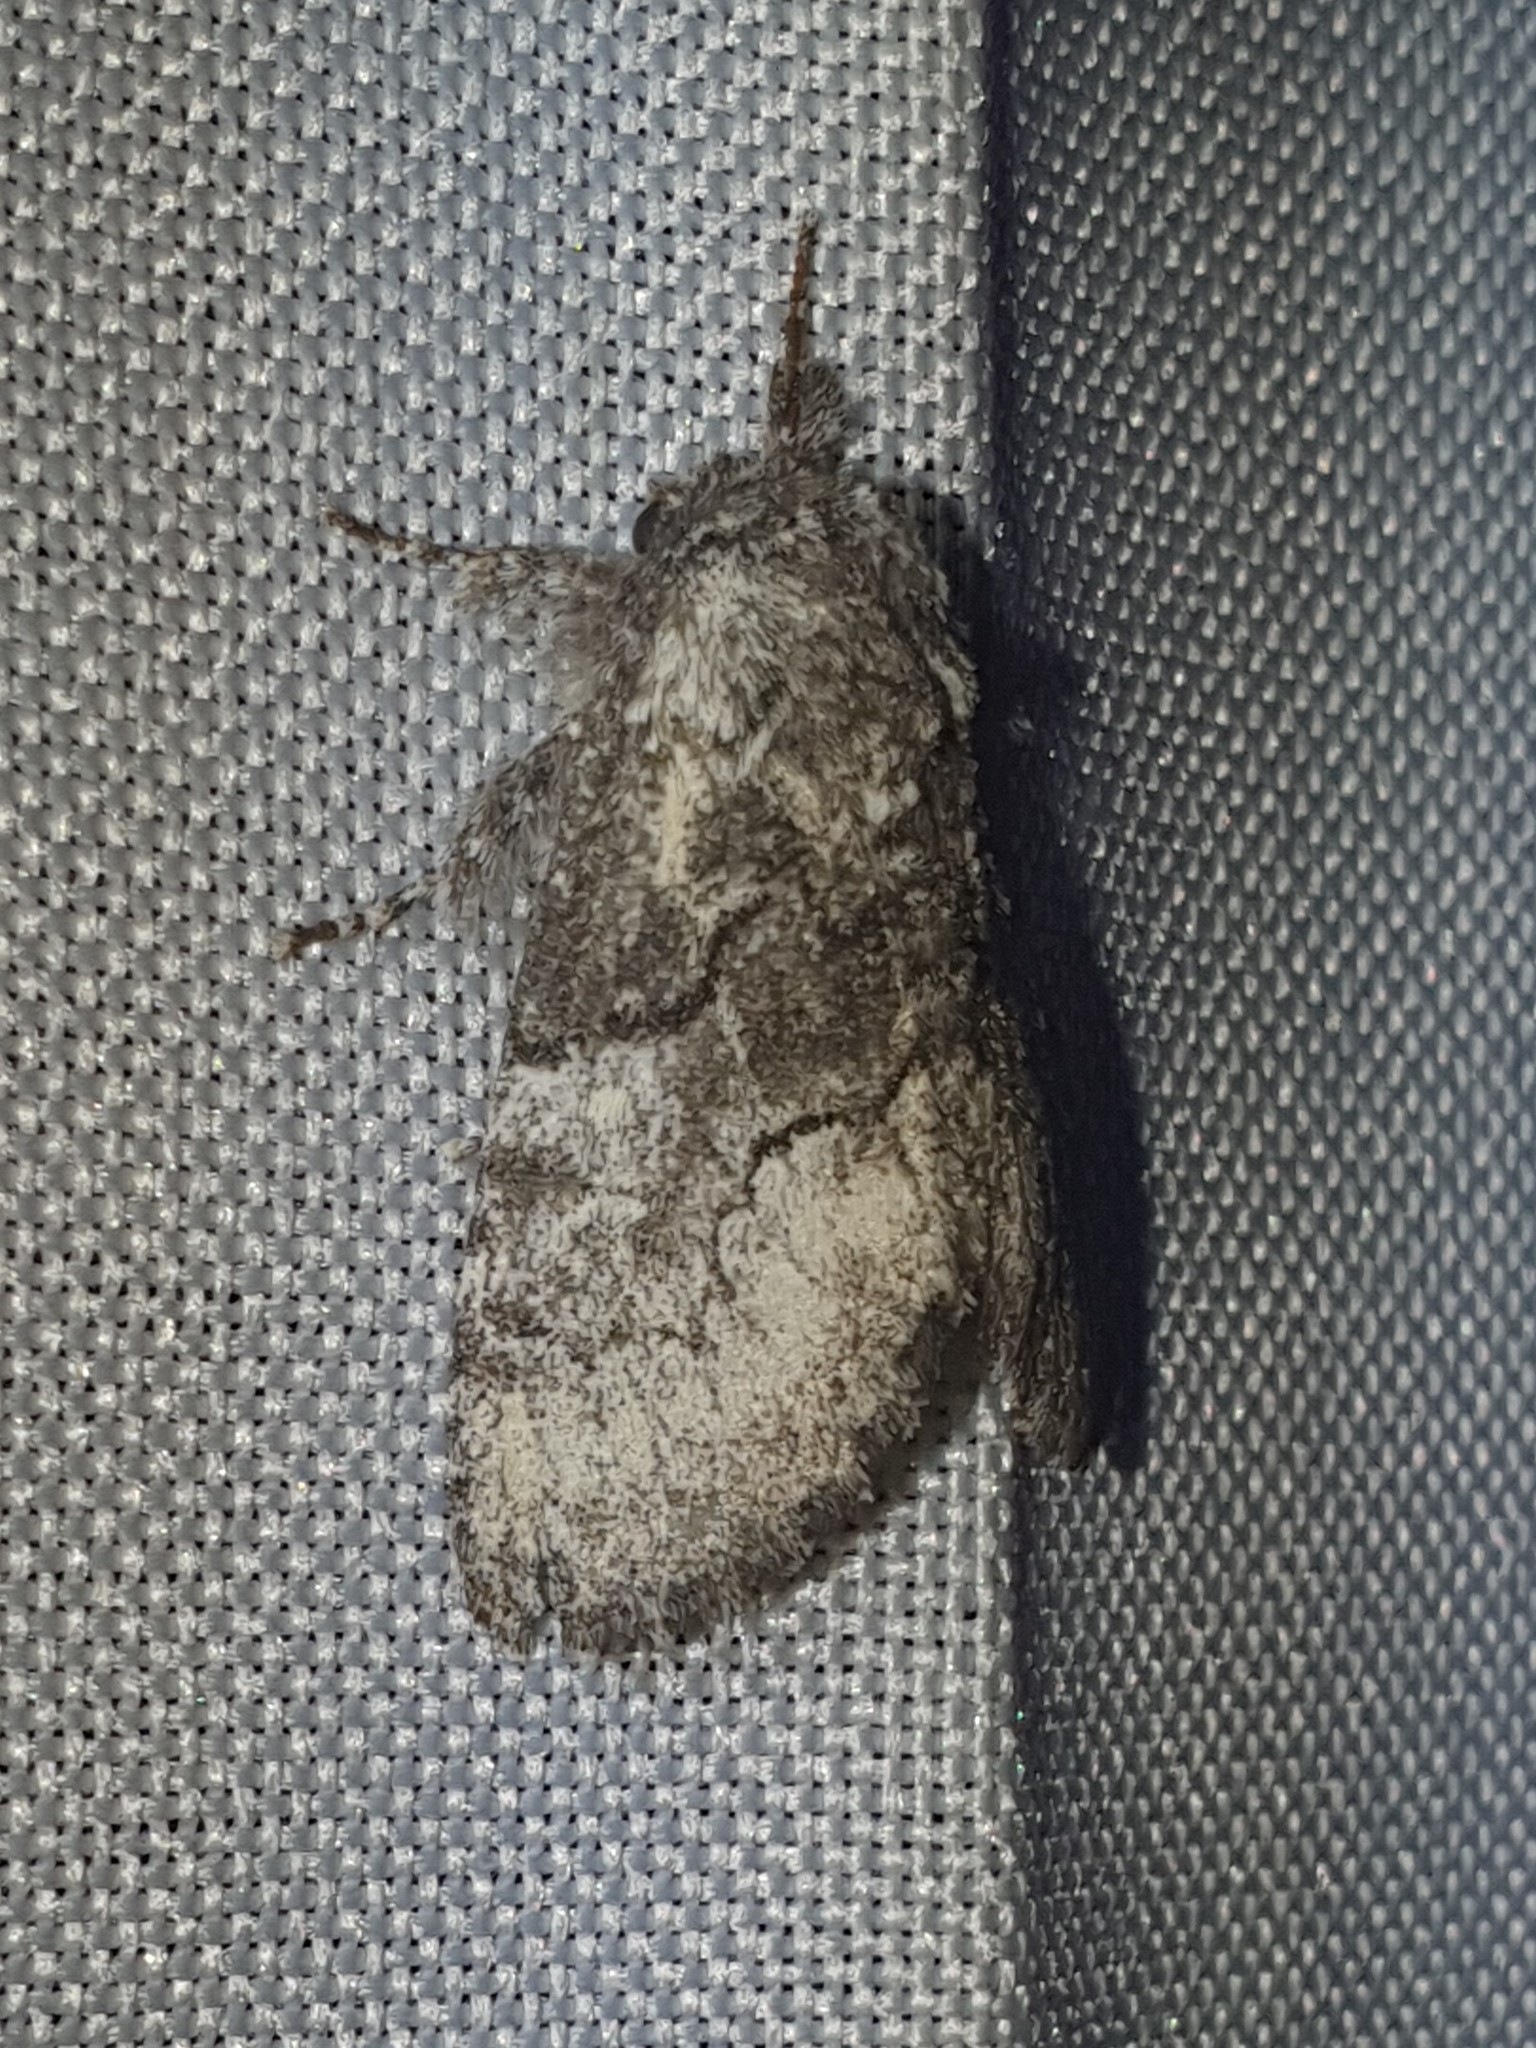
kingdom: Animalia
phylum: Arthropoda
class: Insecta
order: Lepidoptera
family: Noctuidae
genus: Raphia
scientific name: Raphia hybris
